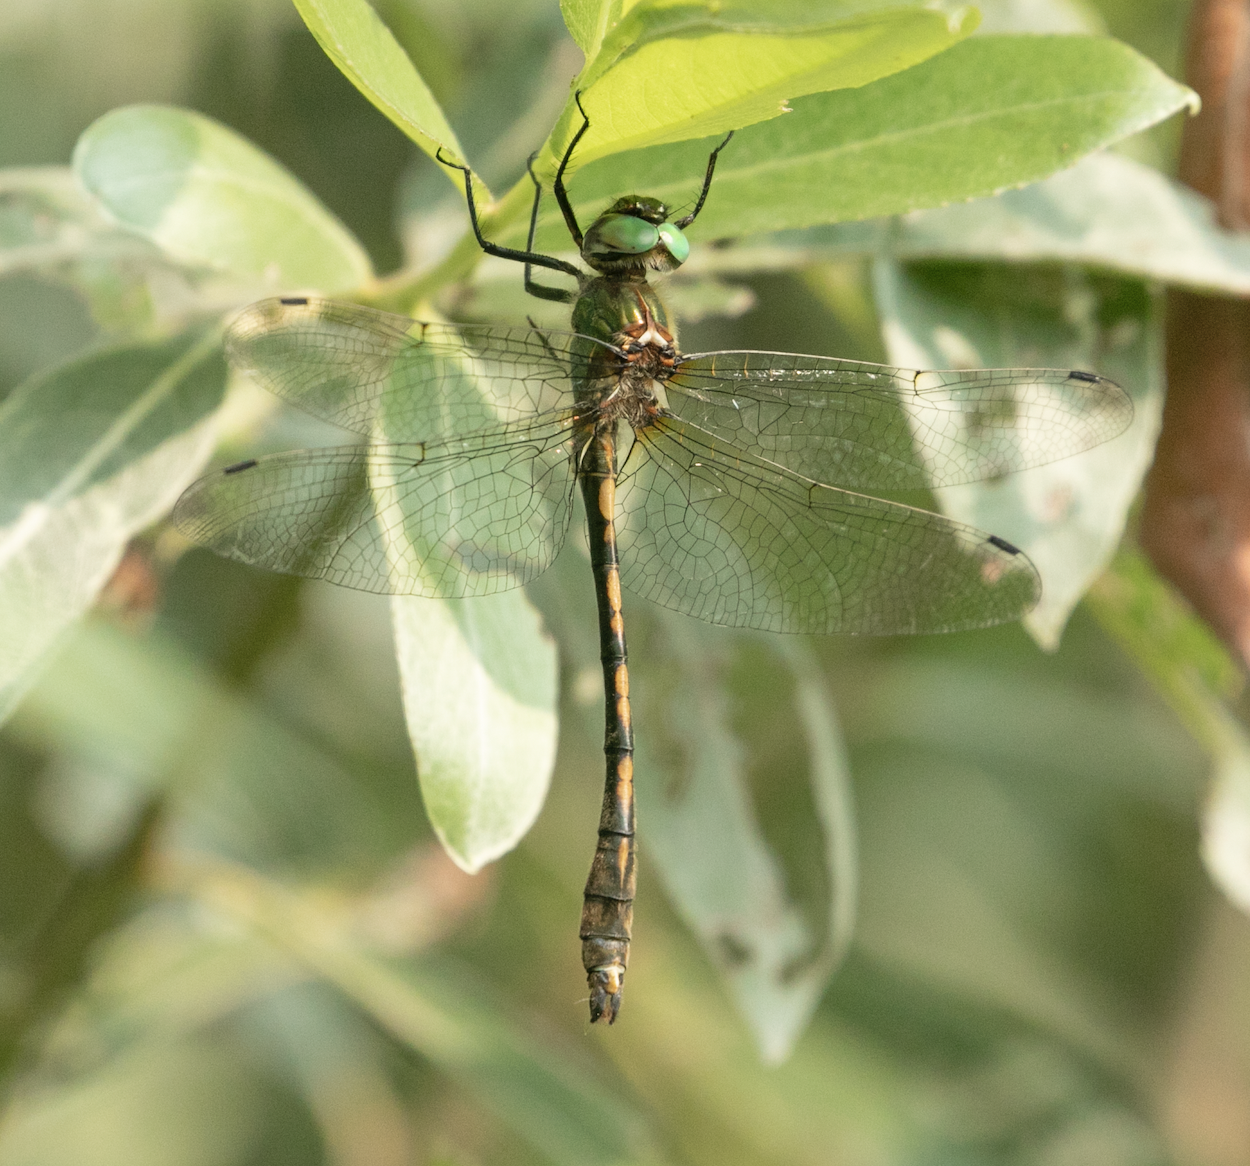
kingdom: Animalia
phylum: Arthropoda
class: Insecta
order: Odonata
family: Corduliidae
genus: Oxygastra
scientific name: Oxygastra curtisii
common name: Orange-spotted emerald
